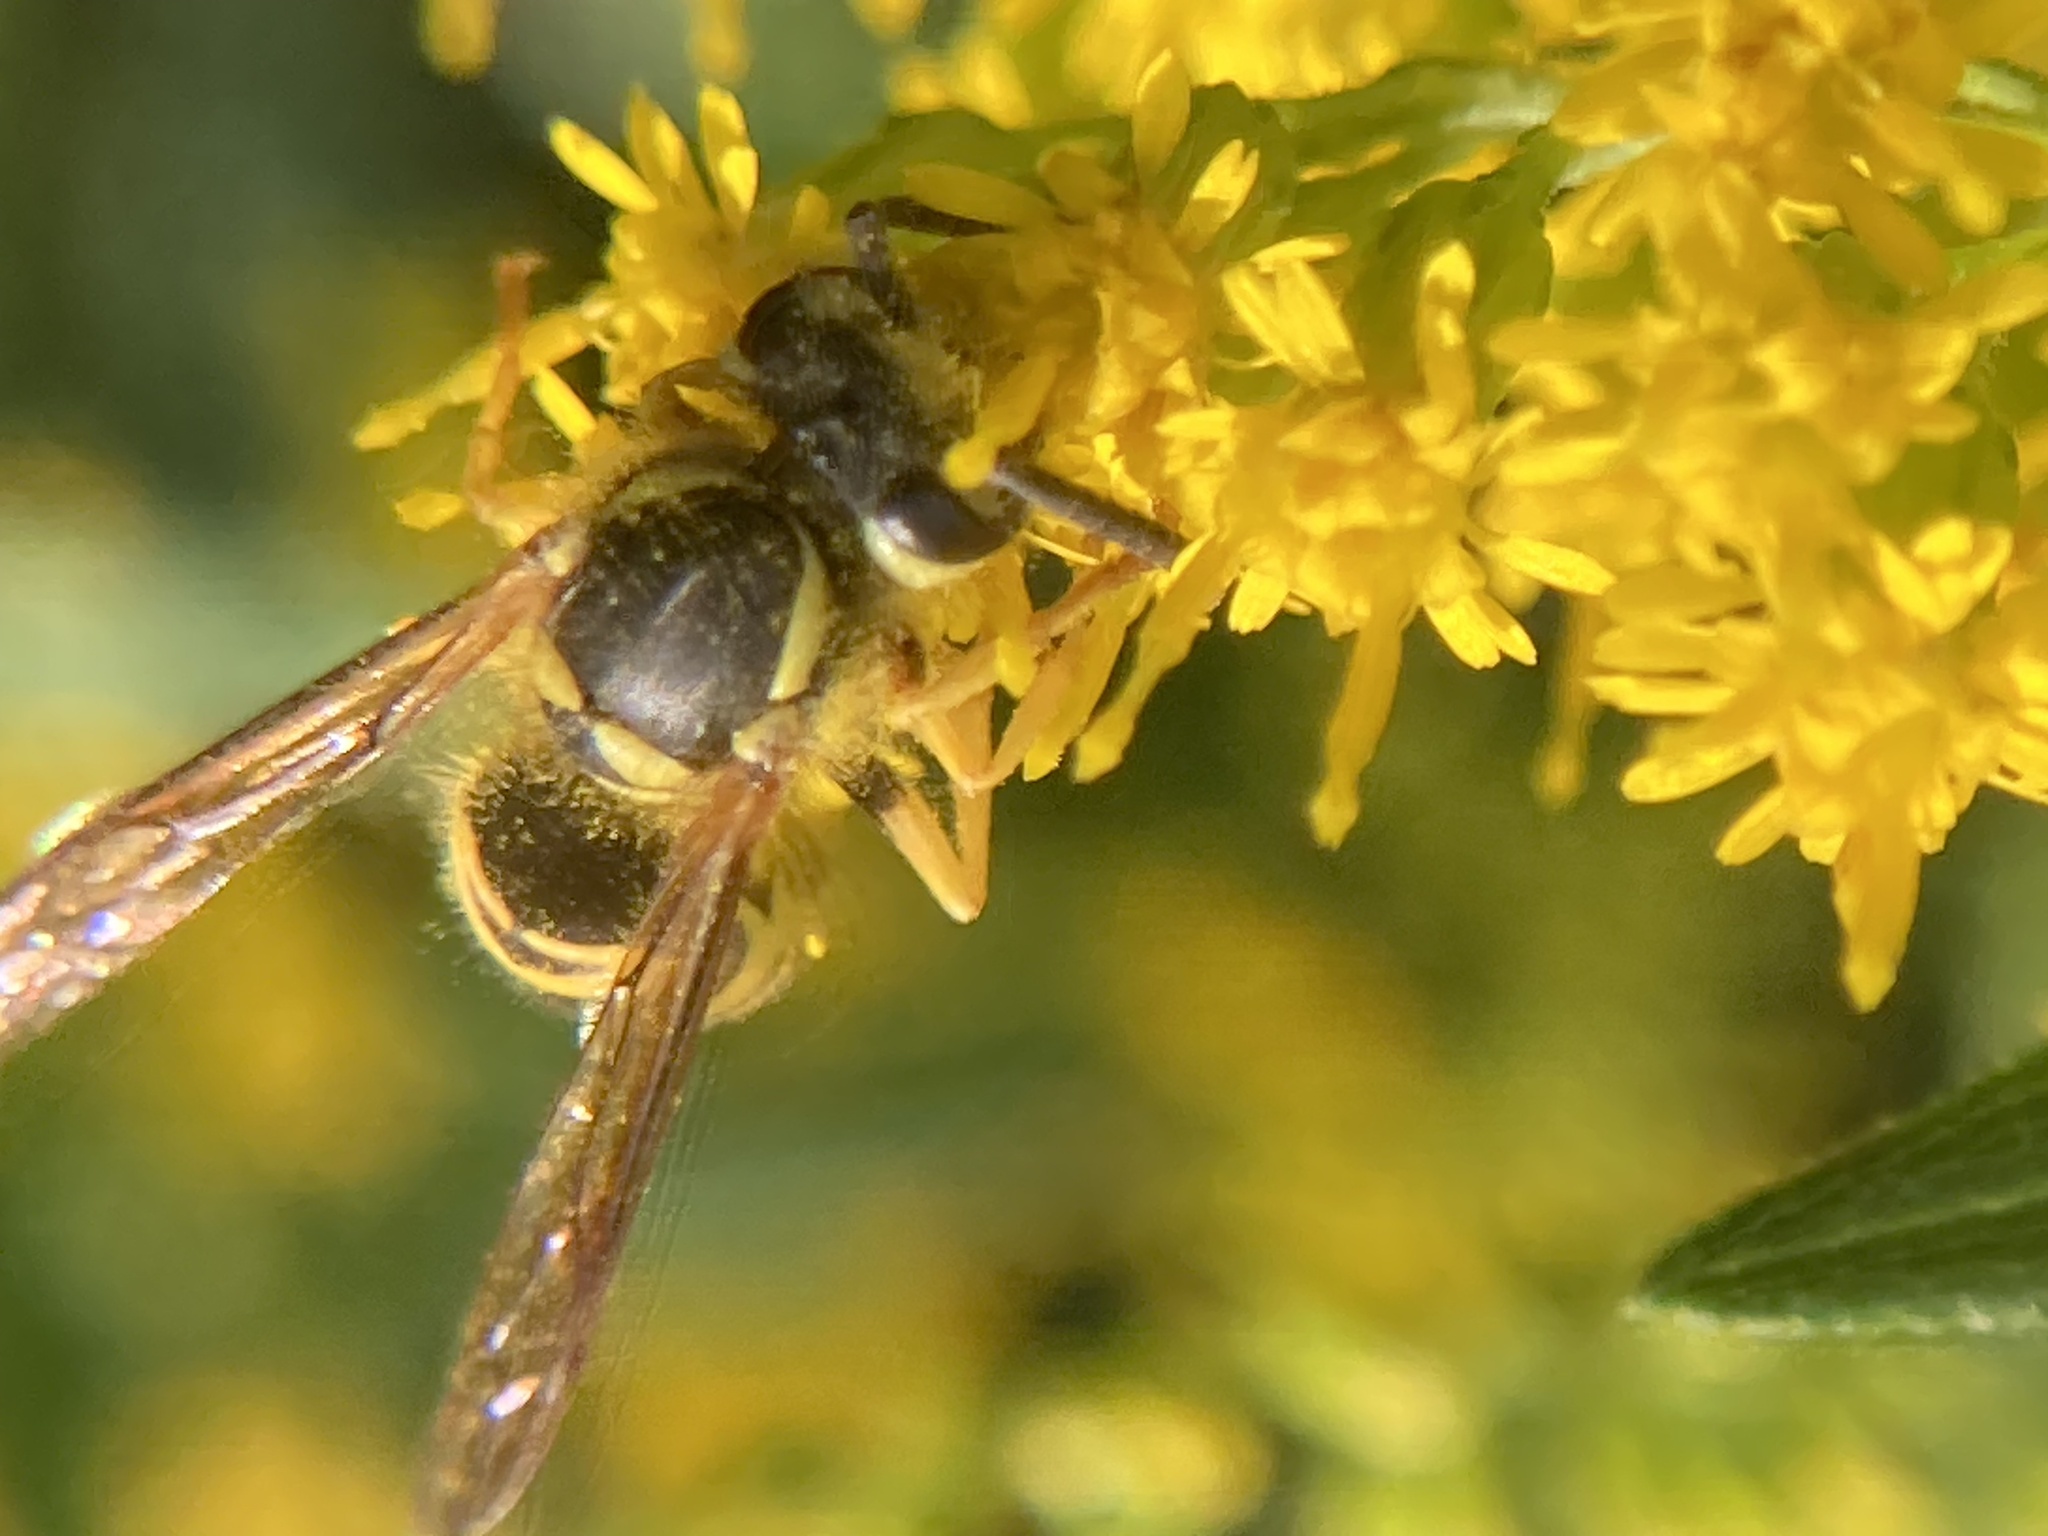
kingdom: Animalia
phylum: Arthropoda
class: Insecta
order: Hymenoptera
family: Vespidae
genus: Vespula
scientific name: Vespula maculifrons
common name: Eastern yellowjacket
